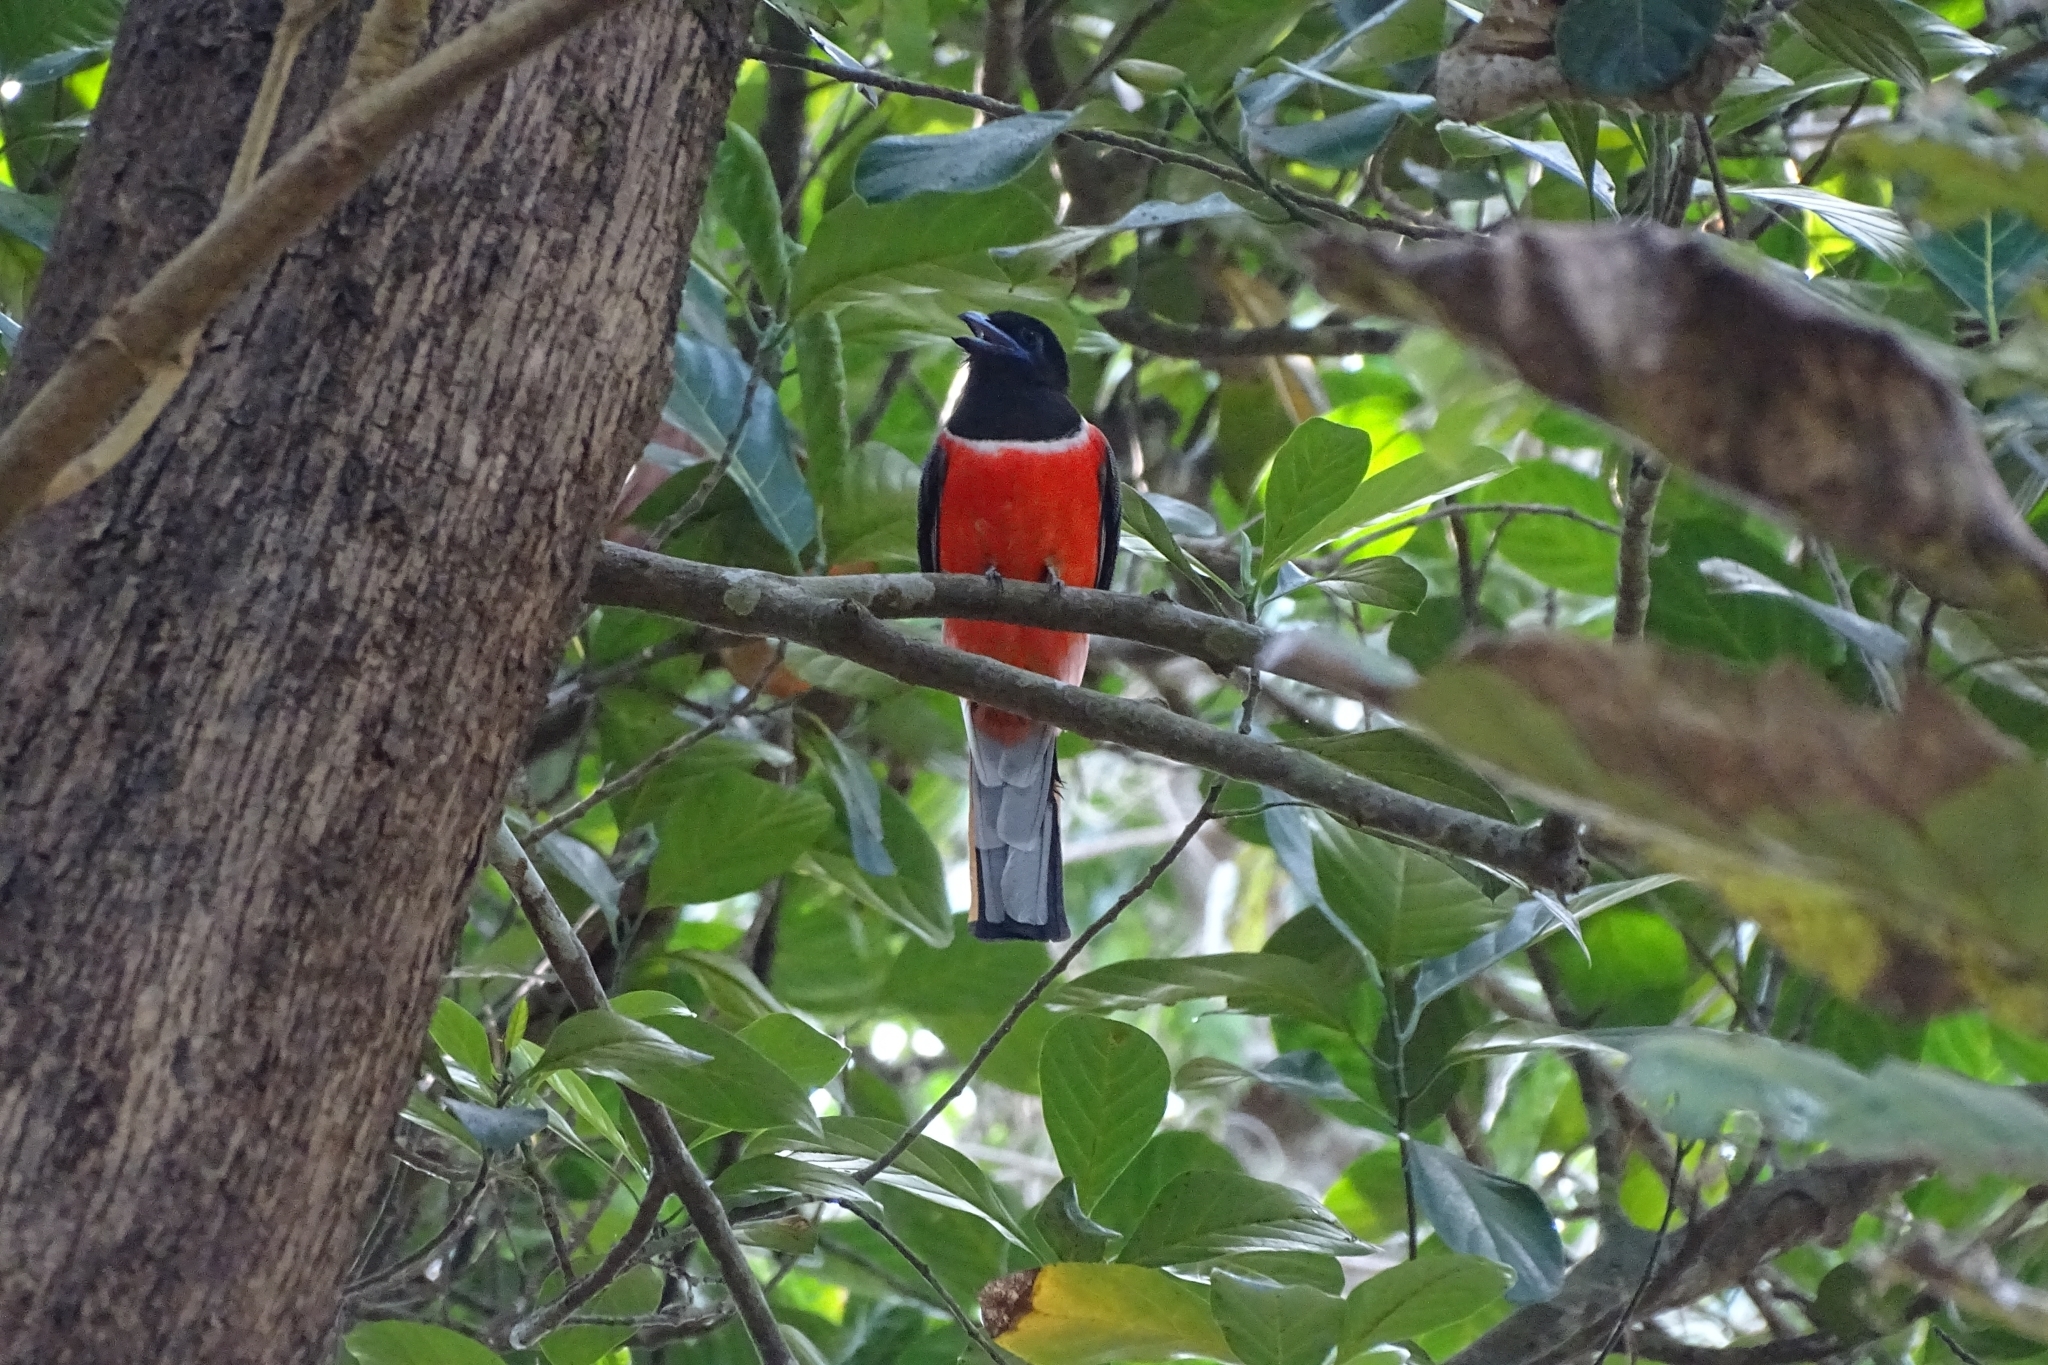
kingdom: Animalia
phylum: Chordata
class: Aves
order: Trogoniformes
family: Trogonidae
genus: Harpactes
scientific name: Harpactes fasciatus
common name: Malabar trogon
